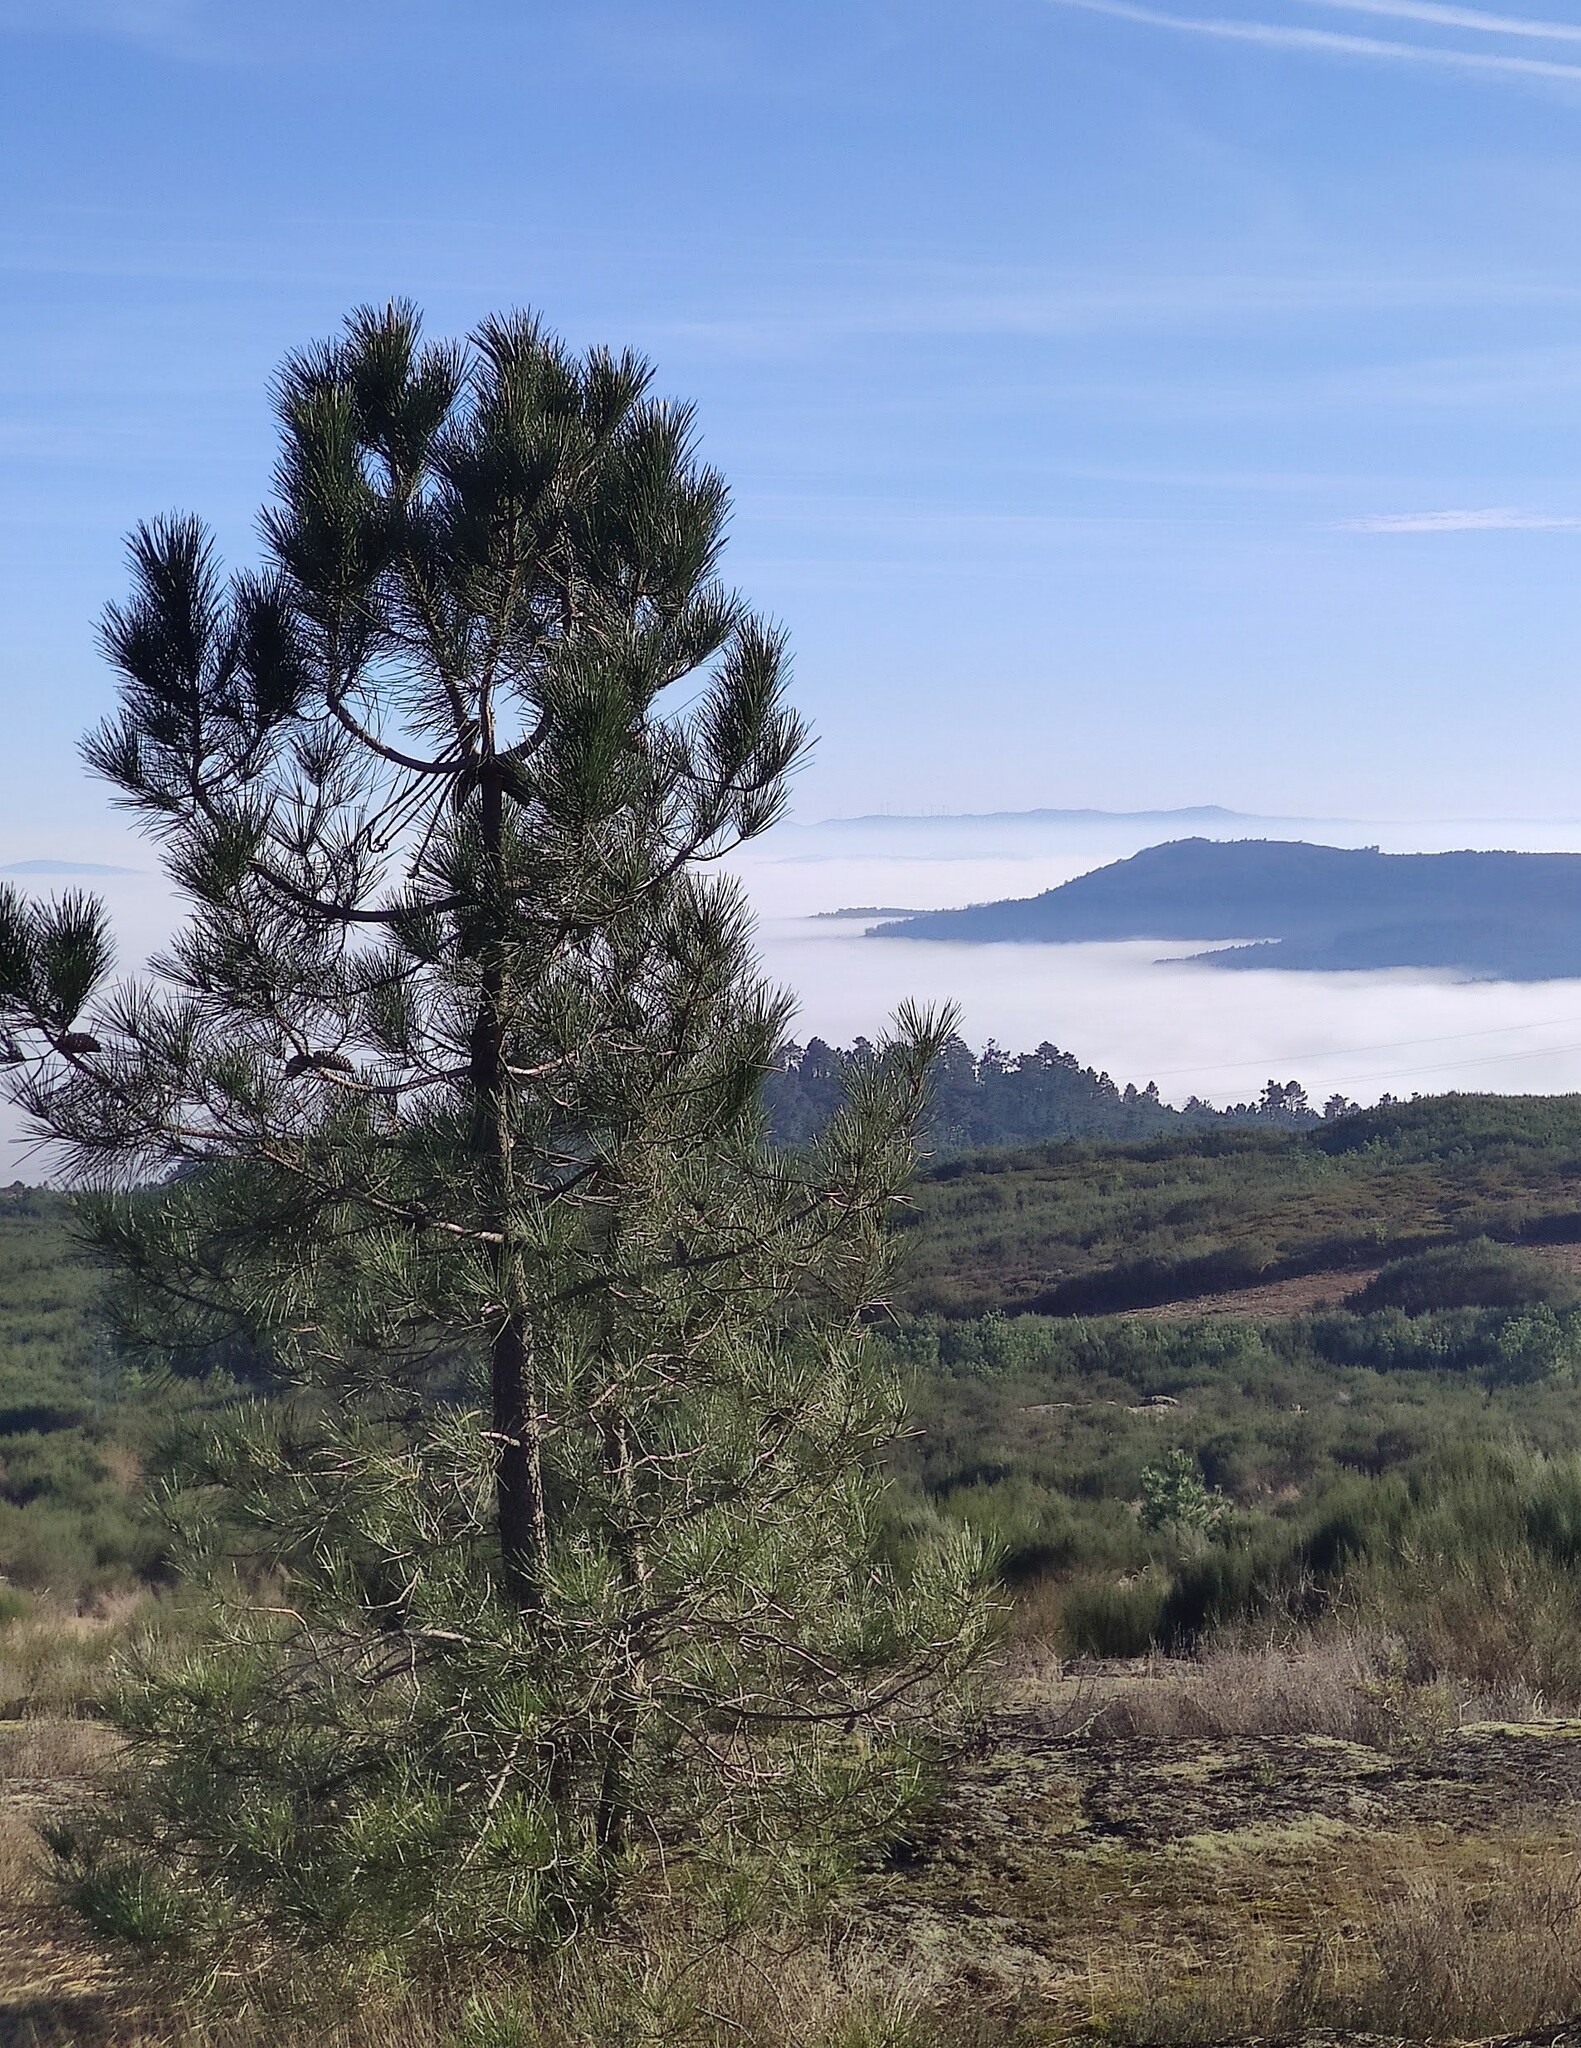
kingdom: Plantae
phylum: Tracheophyta
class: Pinopsida
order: Pinales
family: Pinaceae
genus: Pinus
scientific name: Pinus pinaster
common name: Maritime pine
